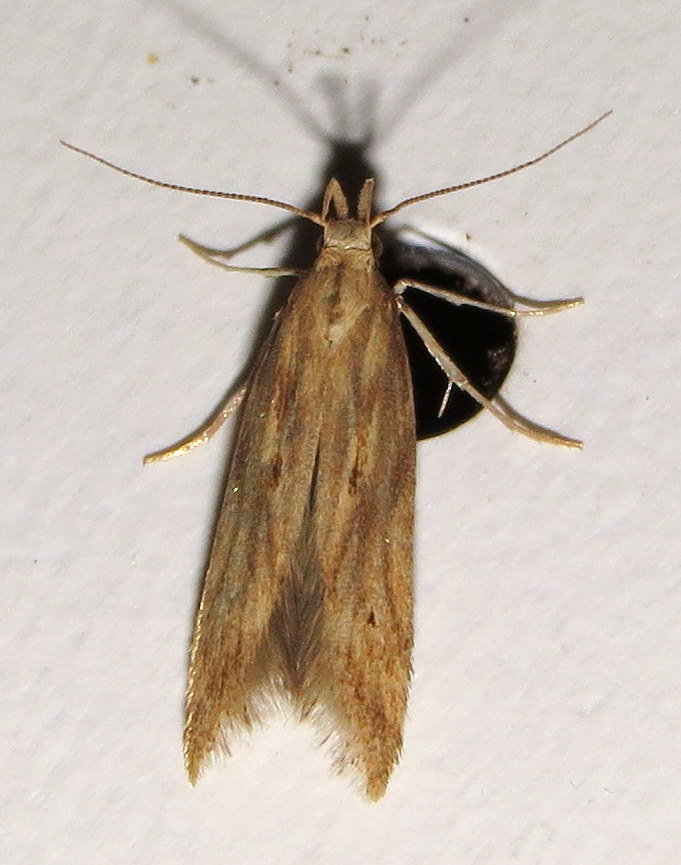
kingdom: Animalia
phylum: Arthropoda
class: Insecta
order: Lepidoptera
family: Gelechiidae
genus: Metzneria
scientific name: Metzneria lappella
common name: Burdock neb
